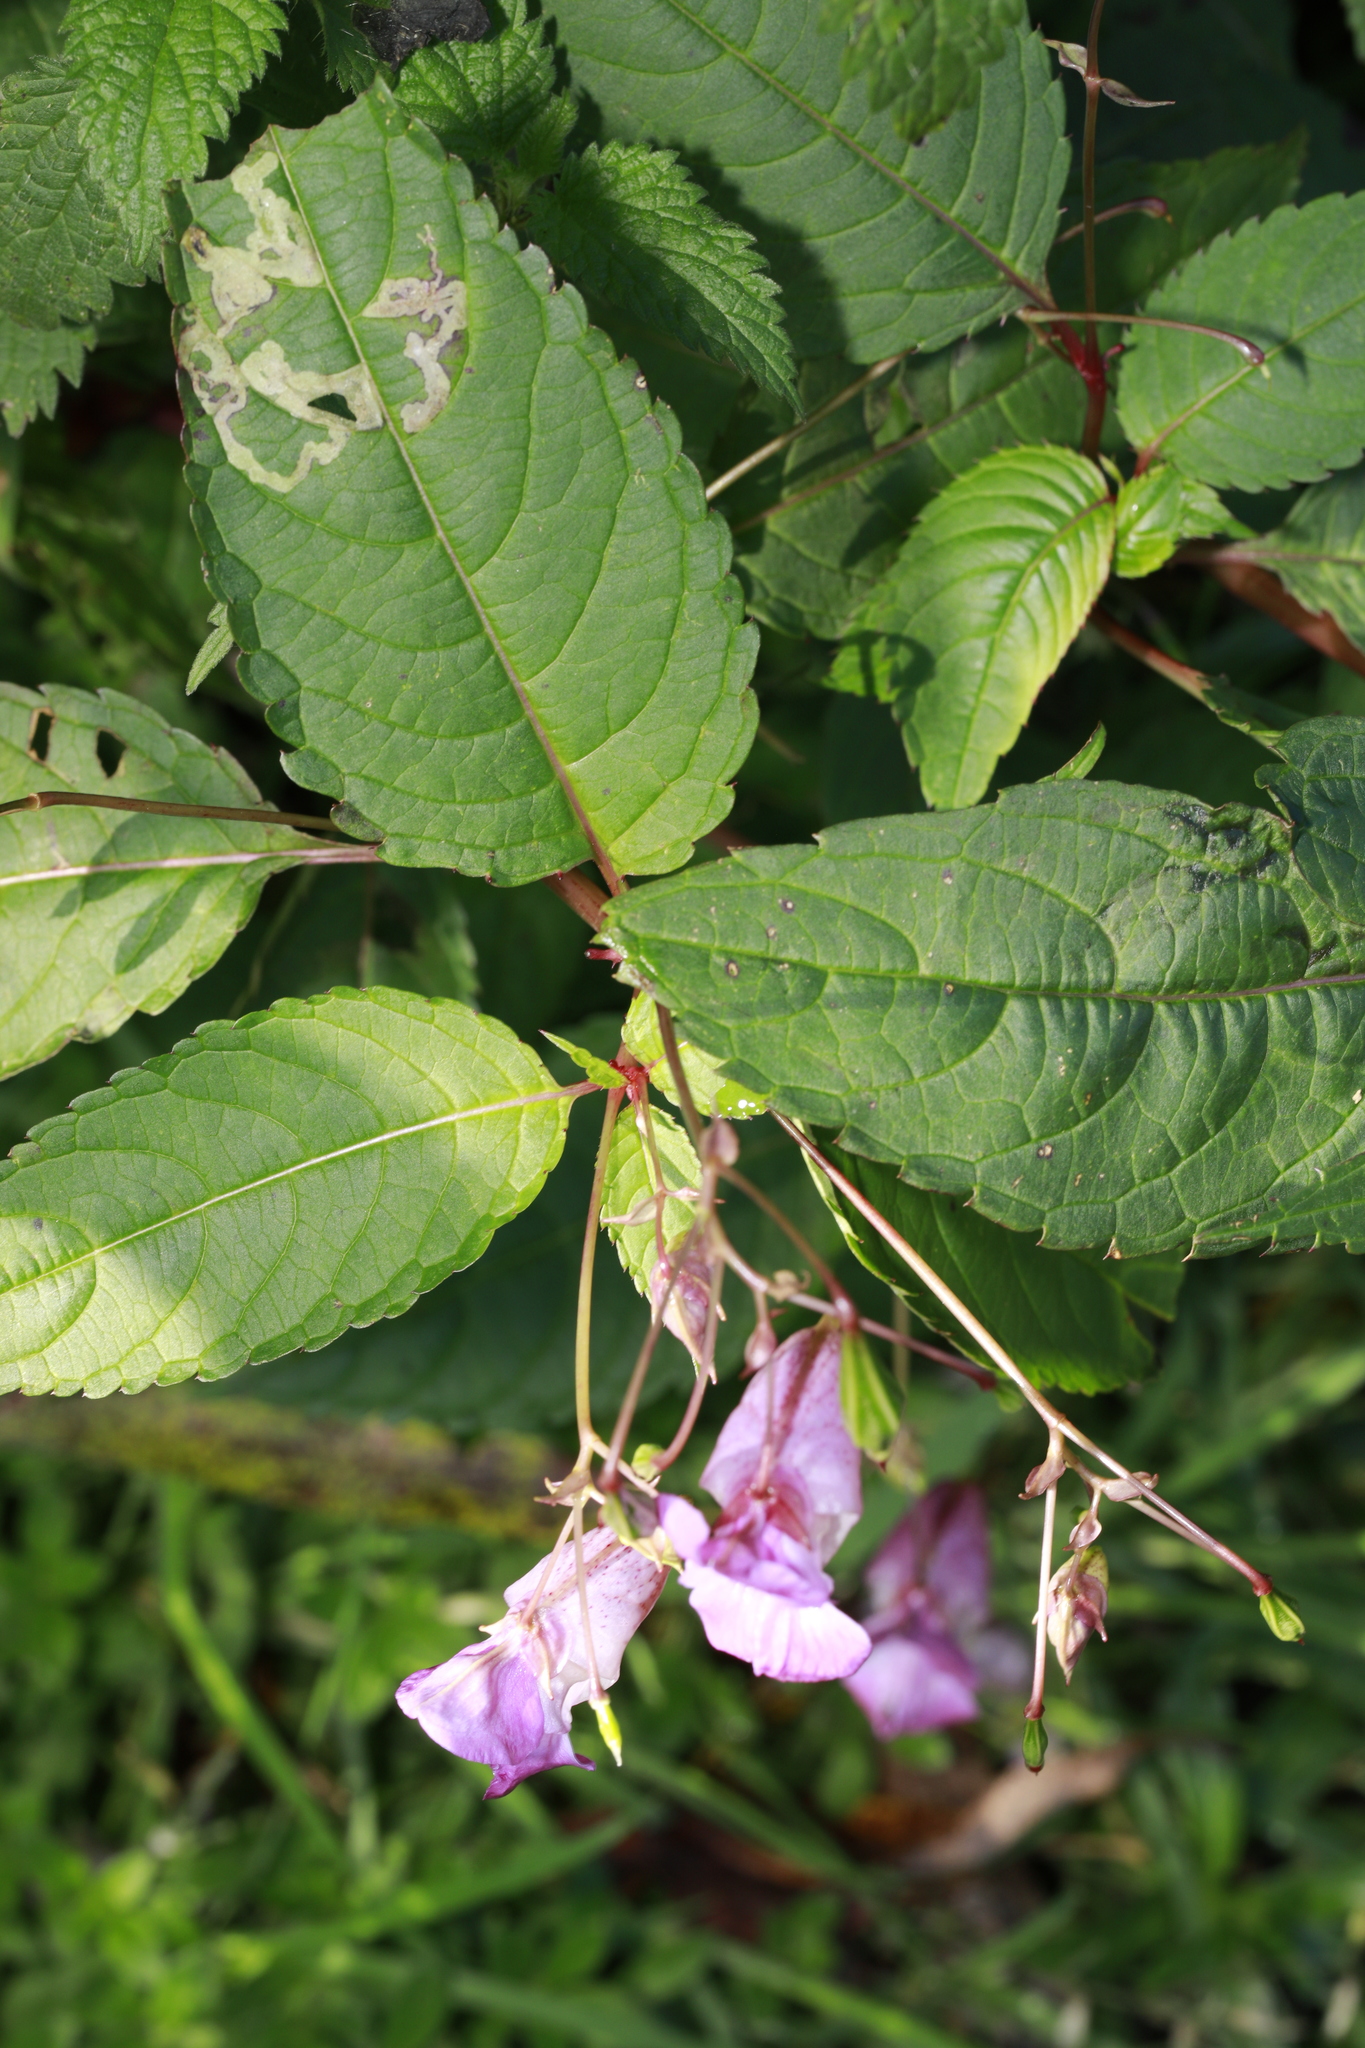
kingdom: Plantae
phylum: Tracheophyta
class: Magnoliopsida
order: Ericales
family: Balsaminaceae
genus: Impatiens
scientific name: Impatiens glandulifera
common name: Himalayan balsam
